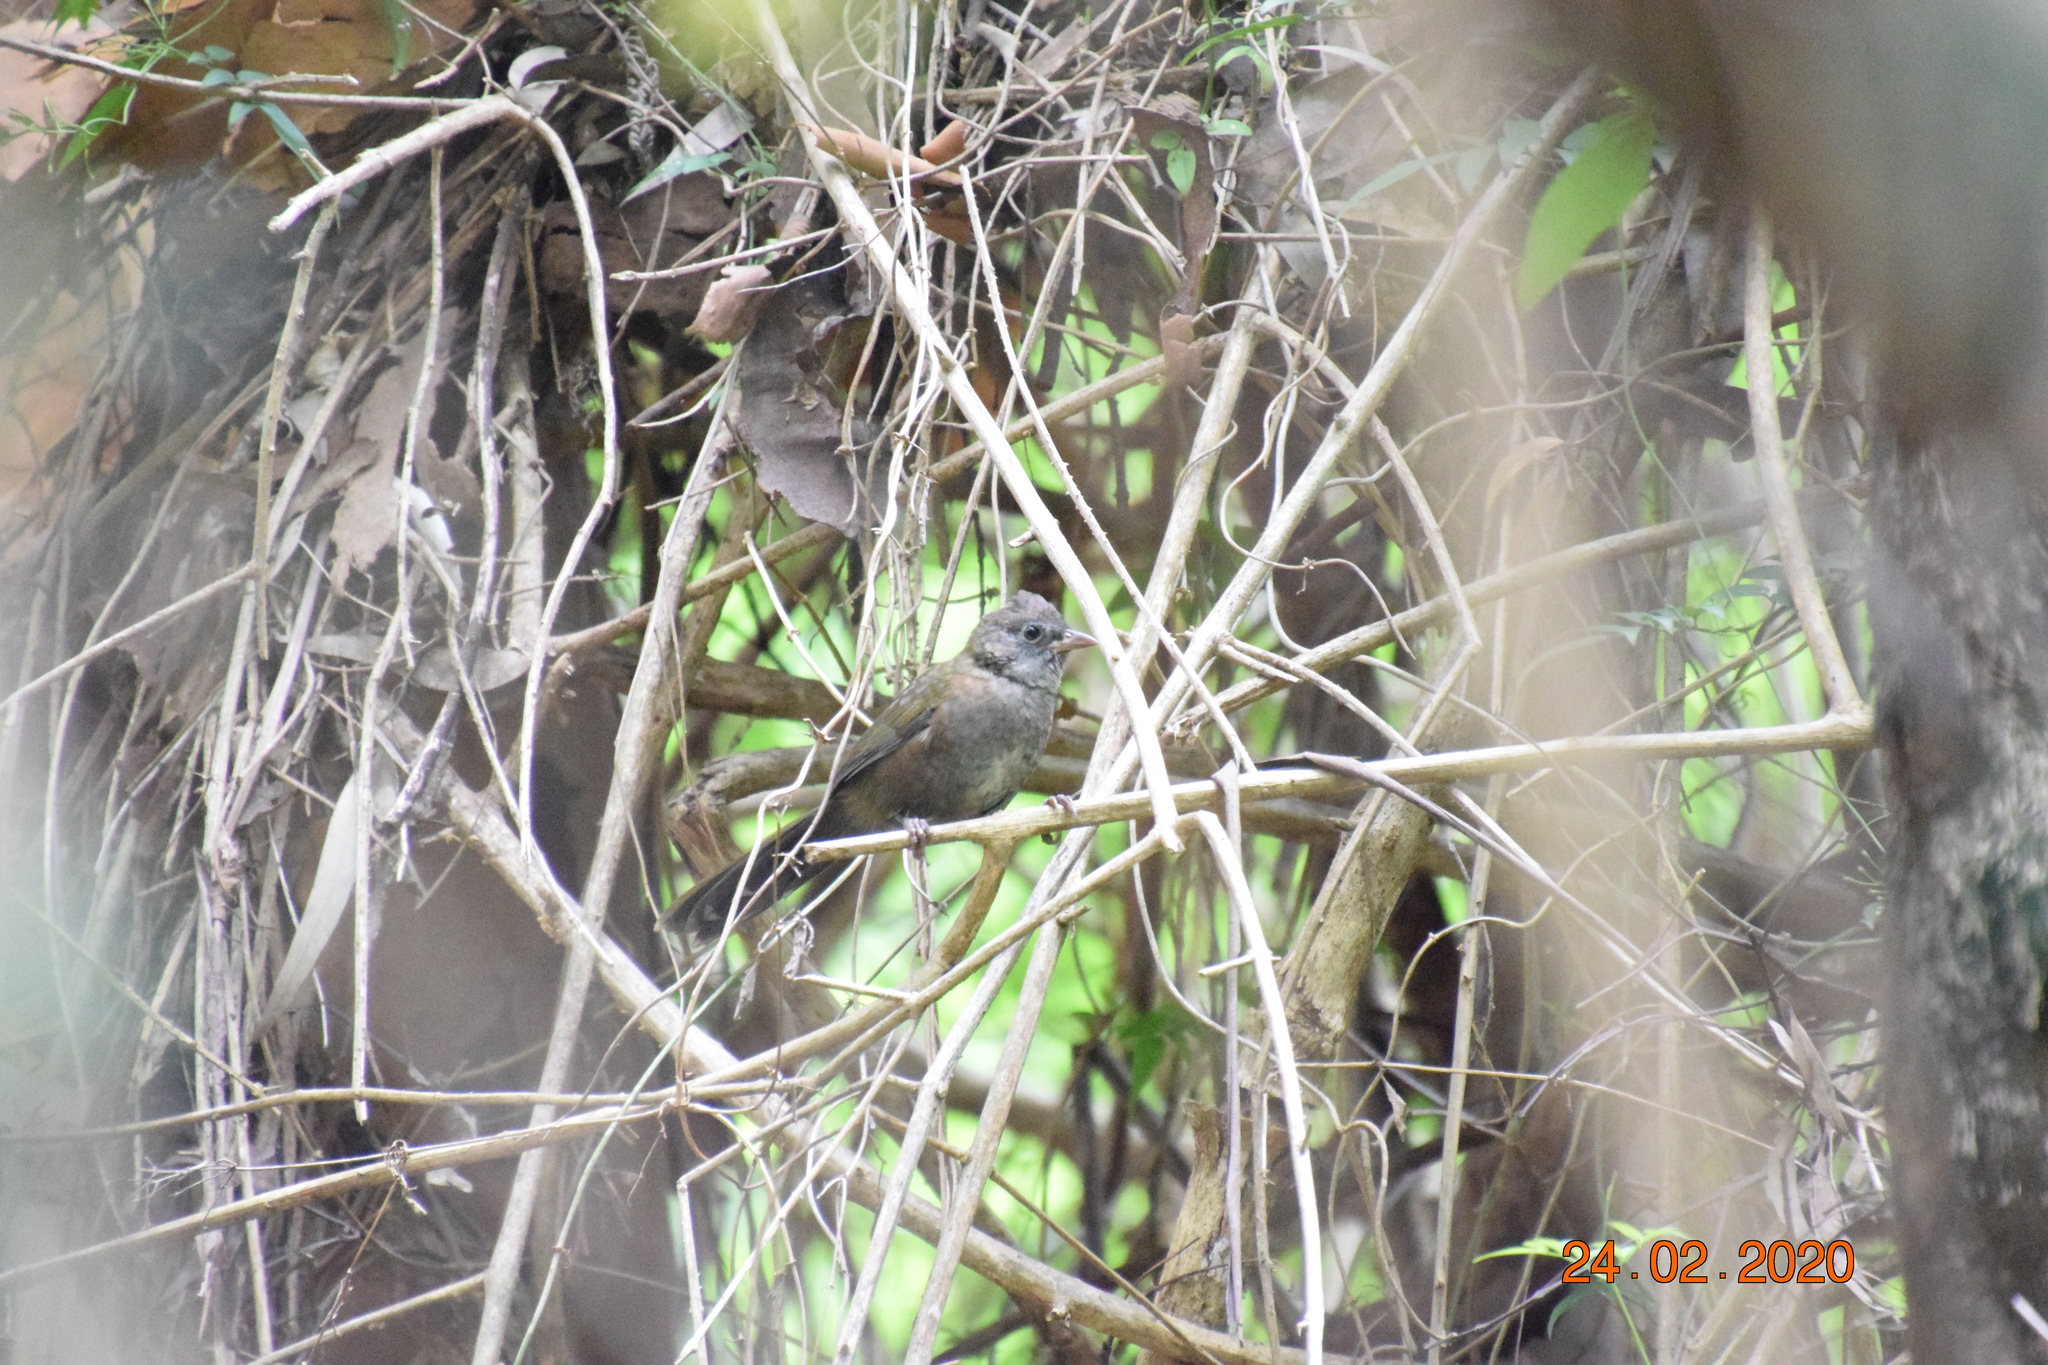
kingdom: Animalia
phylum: Chordata
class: Aves
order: Passeriformes
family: Psophodidae
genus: Psophodes
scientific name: Psophodes olivaceus
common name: Eastern whipbird
